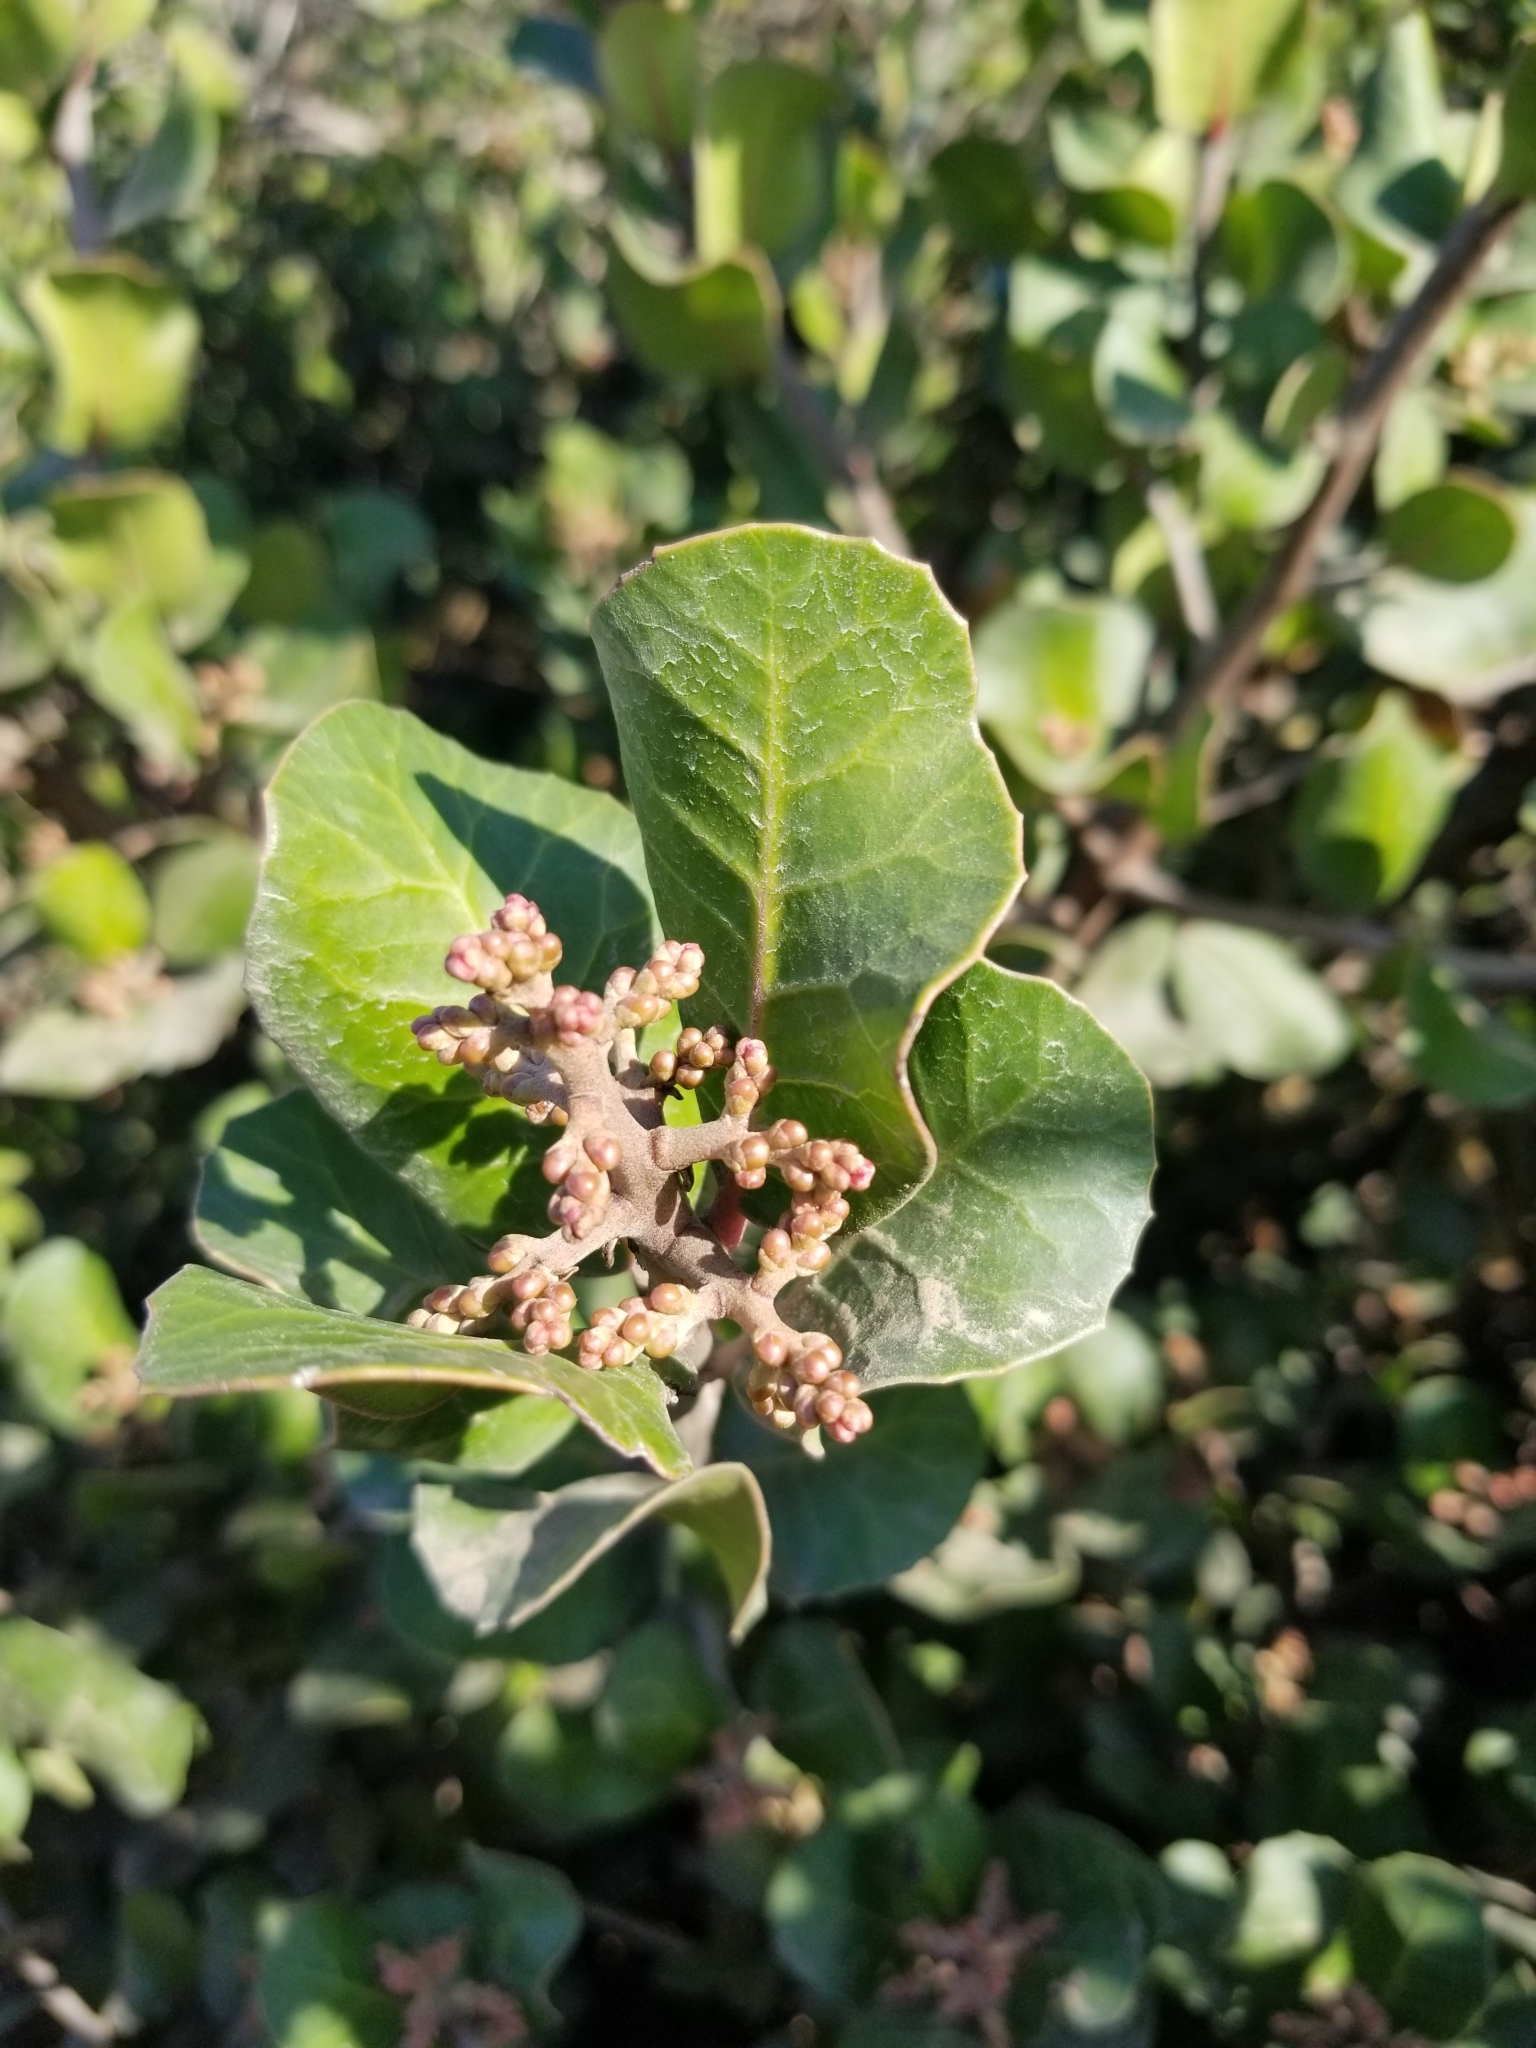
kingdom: Plantae
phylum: Tracheophyta
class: Magnoliopsida
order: Sapindales
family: Anacardiaceae
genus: Rhus
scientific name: Rhus integrifolia
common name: Lemonade sumac
